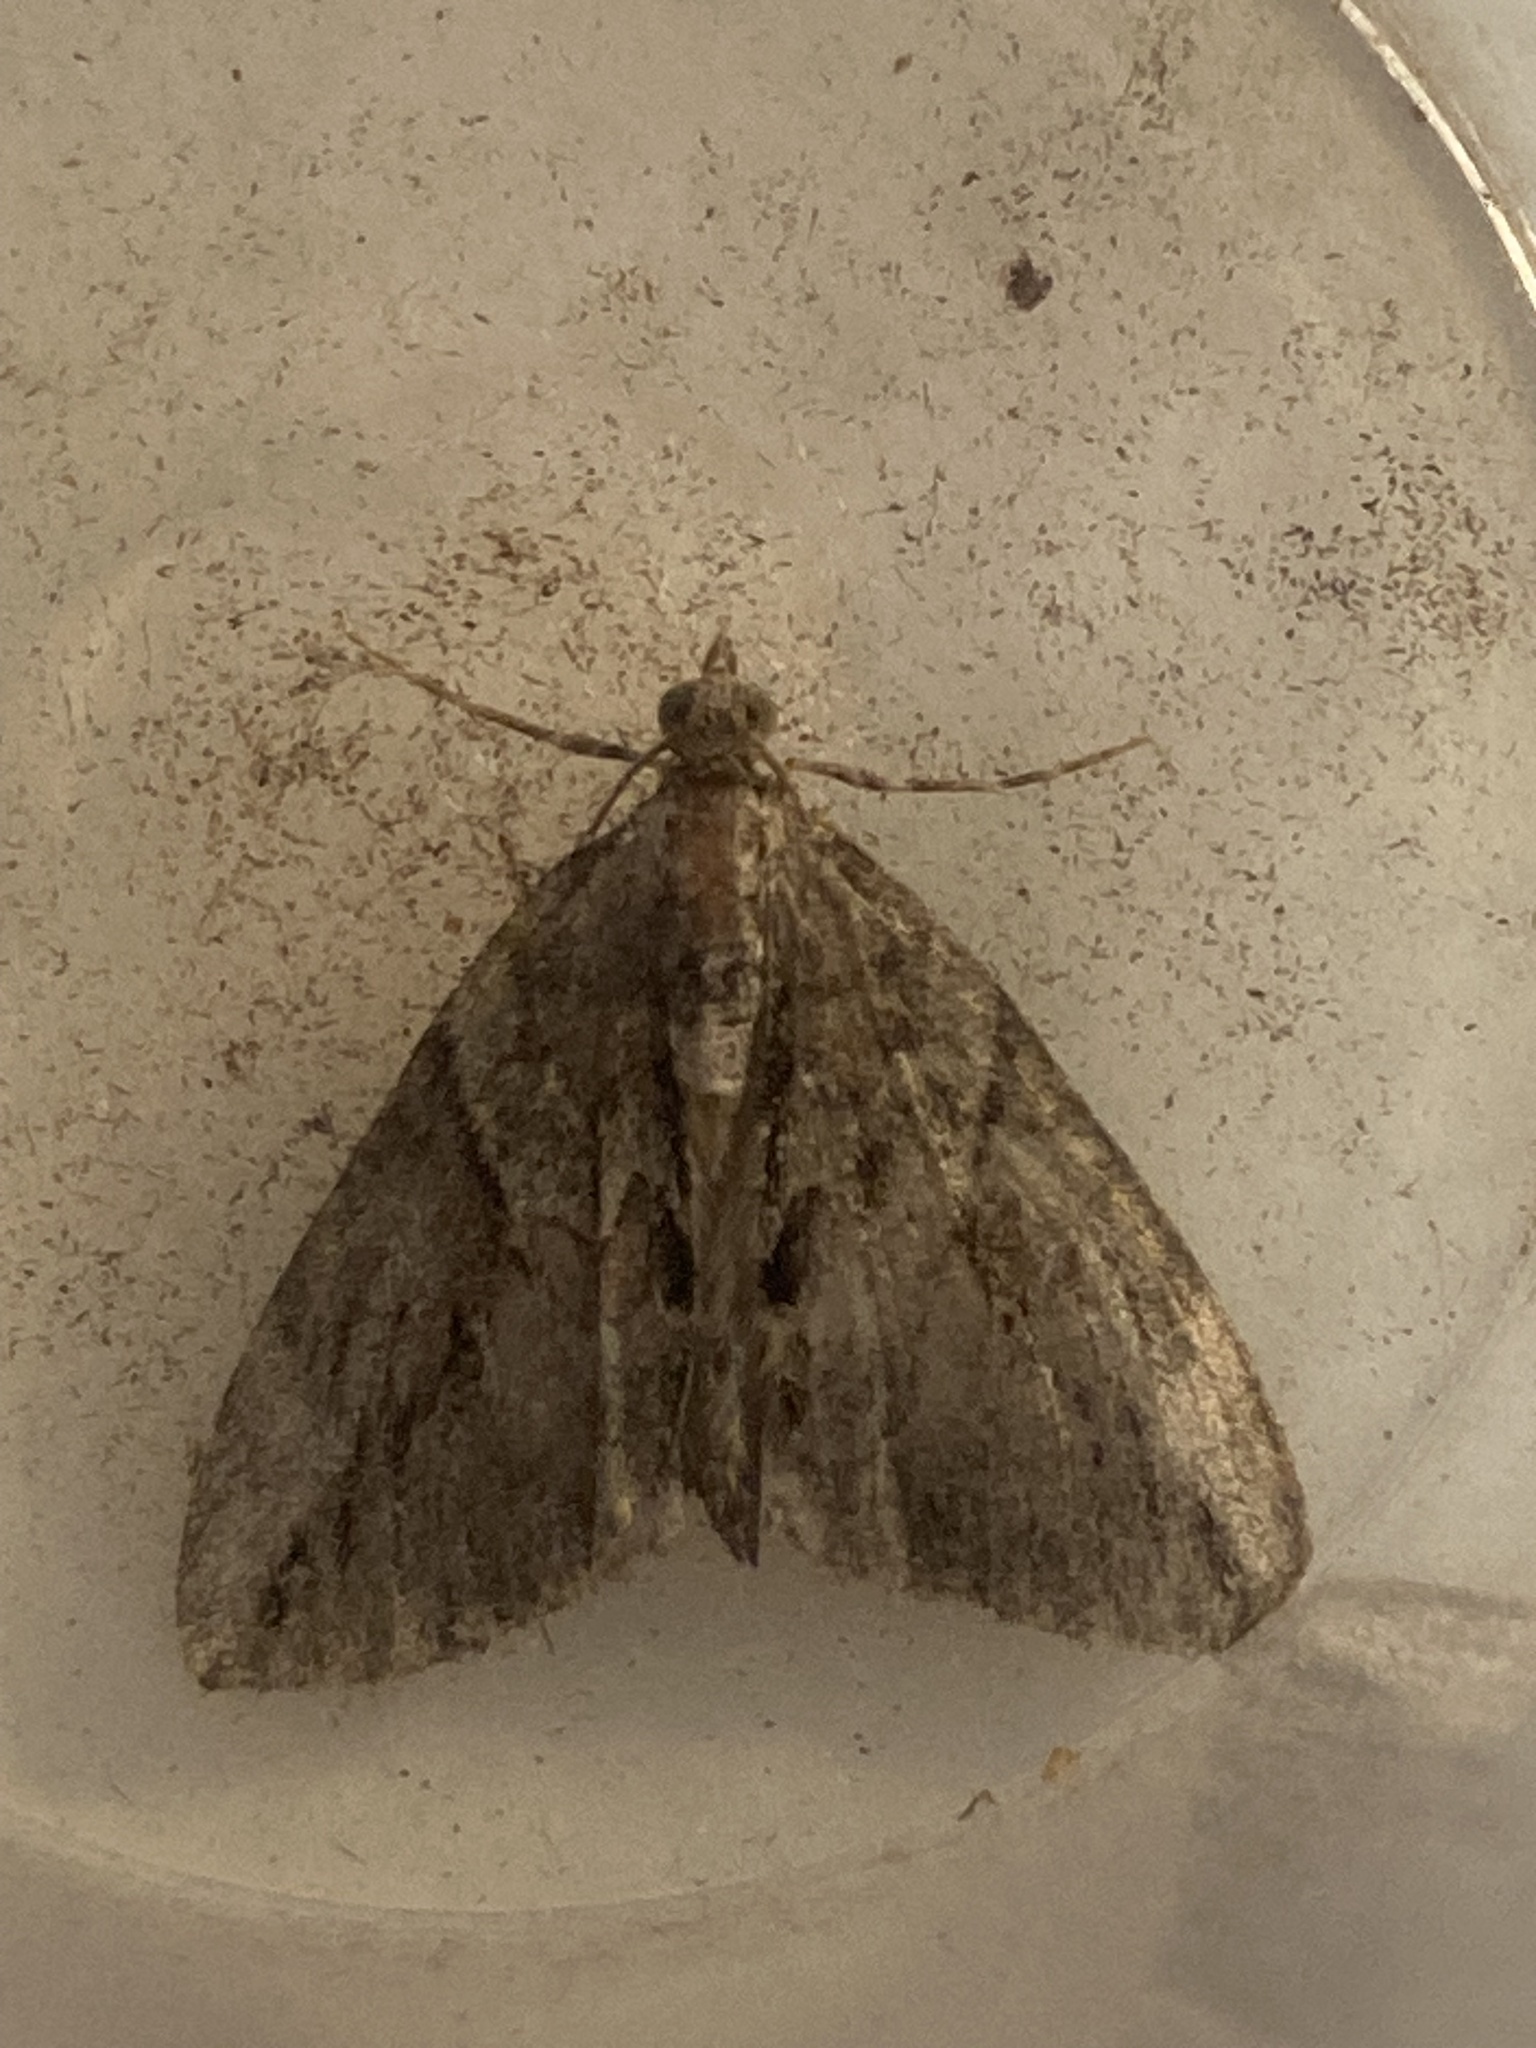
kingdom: Animalia
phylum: Arthropoda
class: Insecta
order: Lepidoptera
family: Geometridae
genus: Thera
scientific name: Thera cupressata
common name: Cypress carpet
